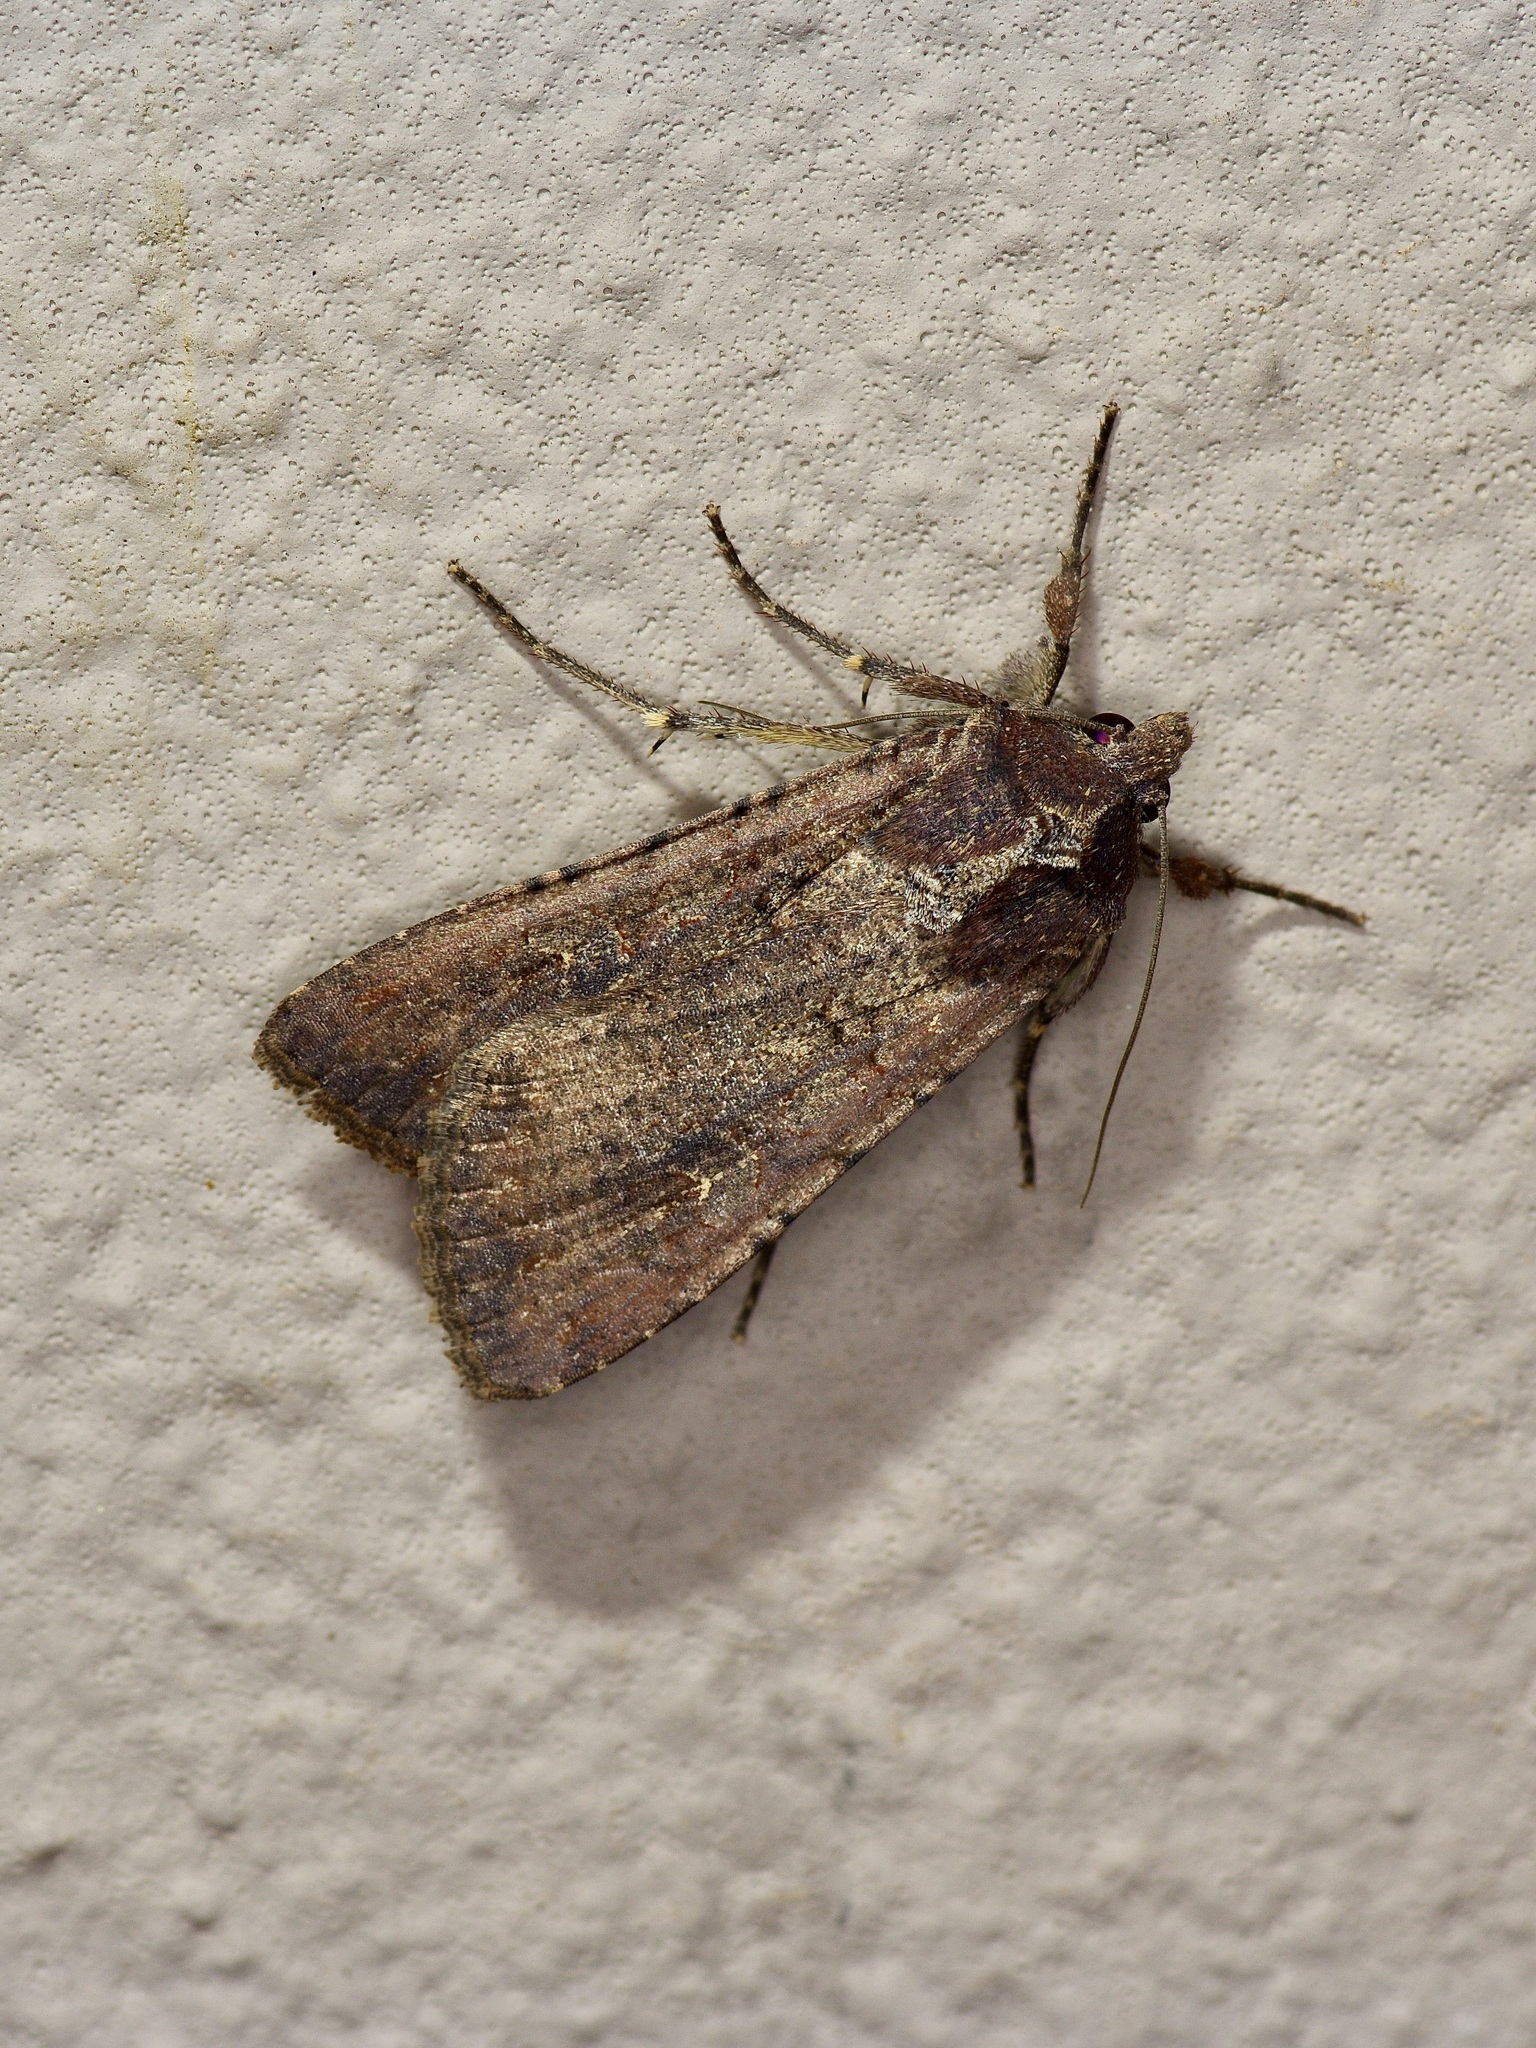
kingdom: Animalia
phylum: Arthropoda
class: Insecta
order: Lepidoptera
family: Noctuidae
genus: Peridroma
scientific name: Peridroma saucia
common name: Pearly underwing
